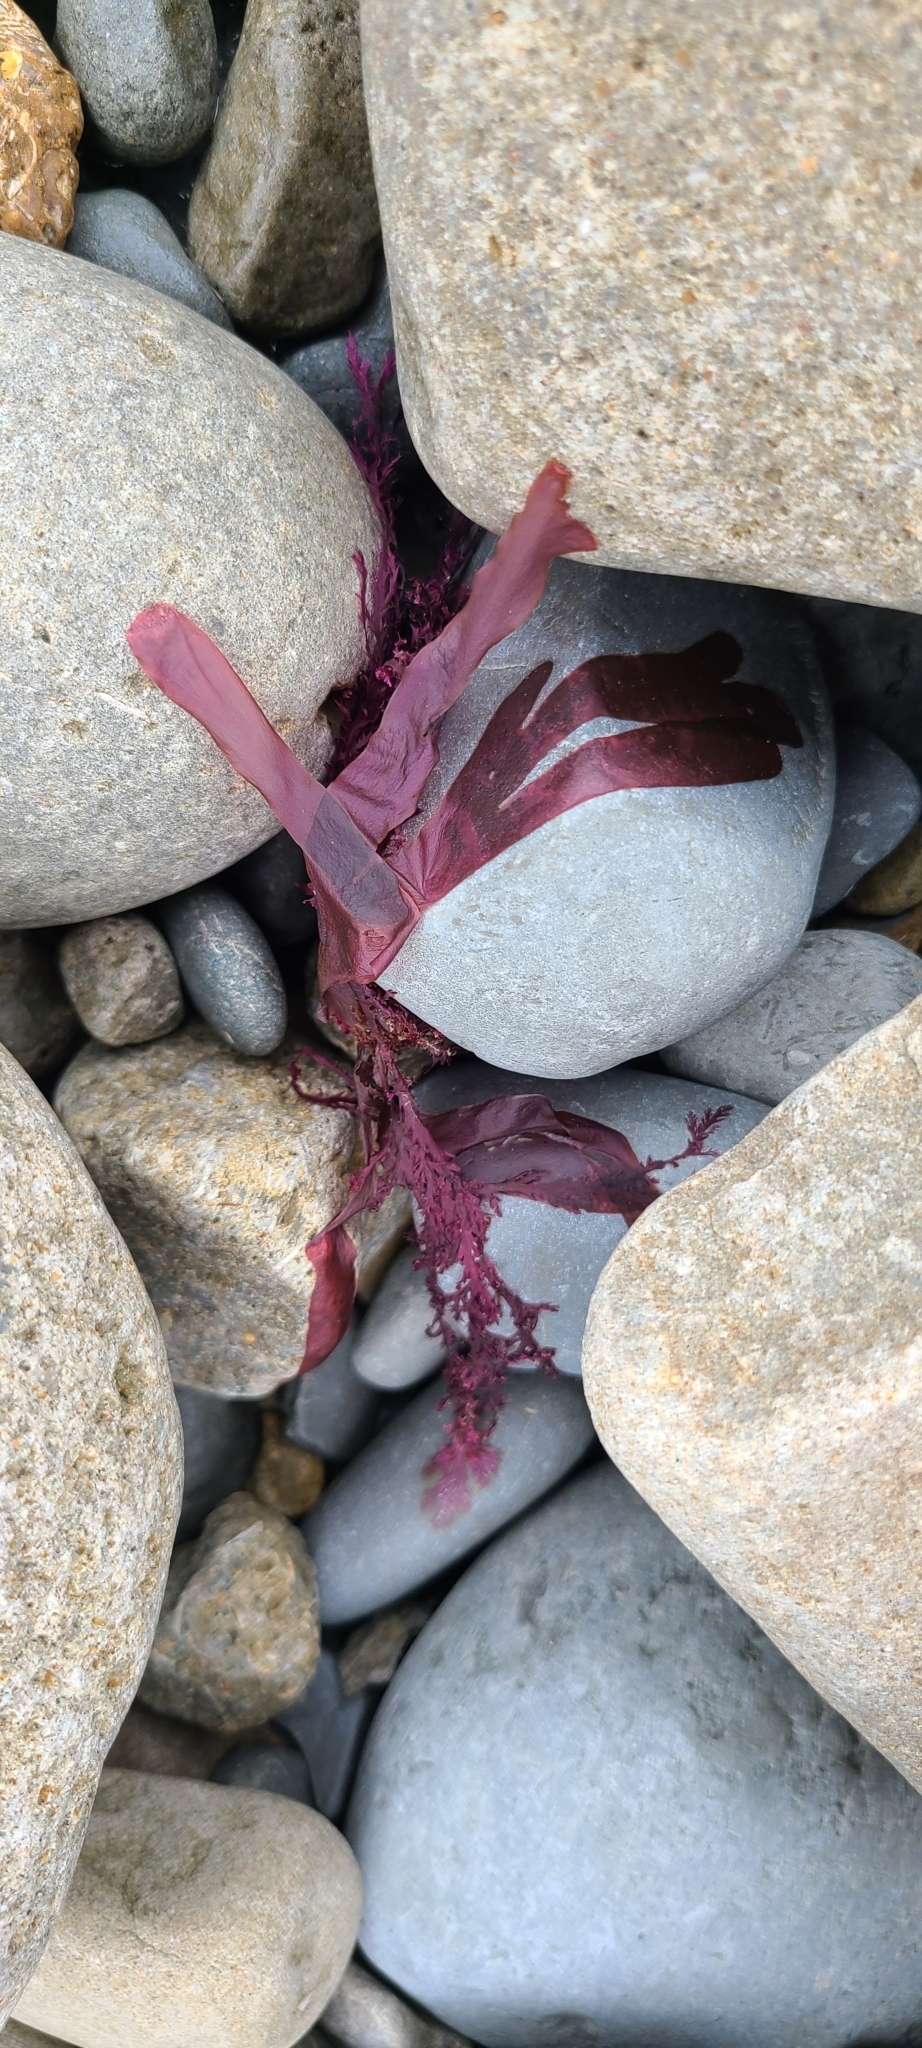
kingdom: Plantae
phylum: Rhodophyta
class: Florideophyceae
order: Ceramiales
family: Delesseriaceae
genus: Hymenena
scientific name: Hymenena durvillaei
